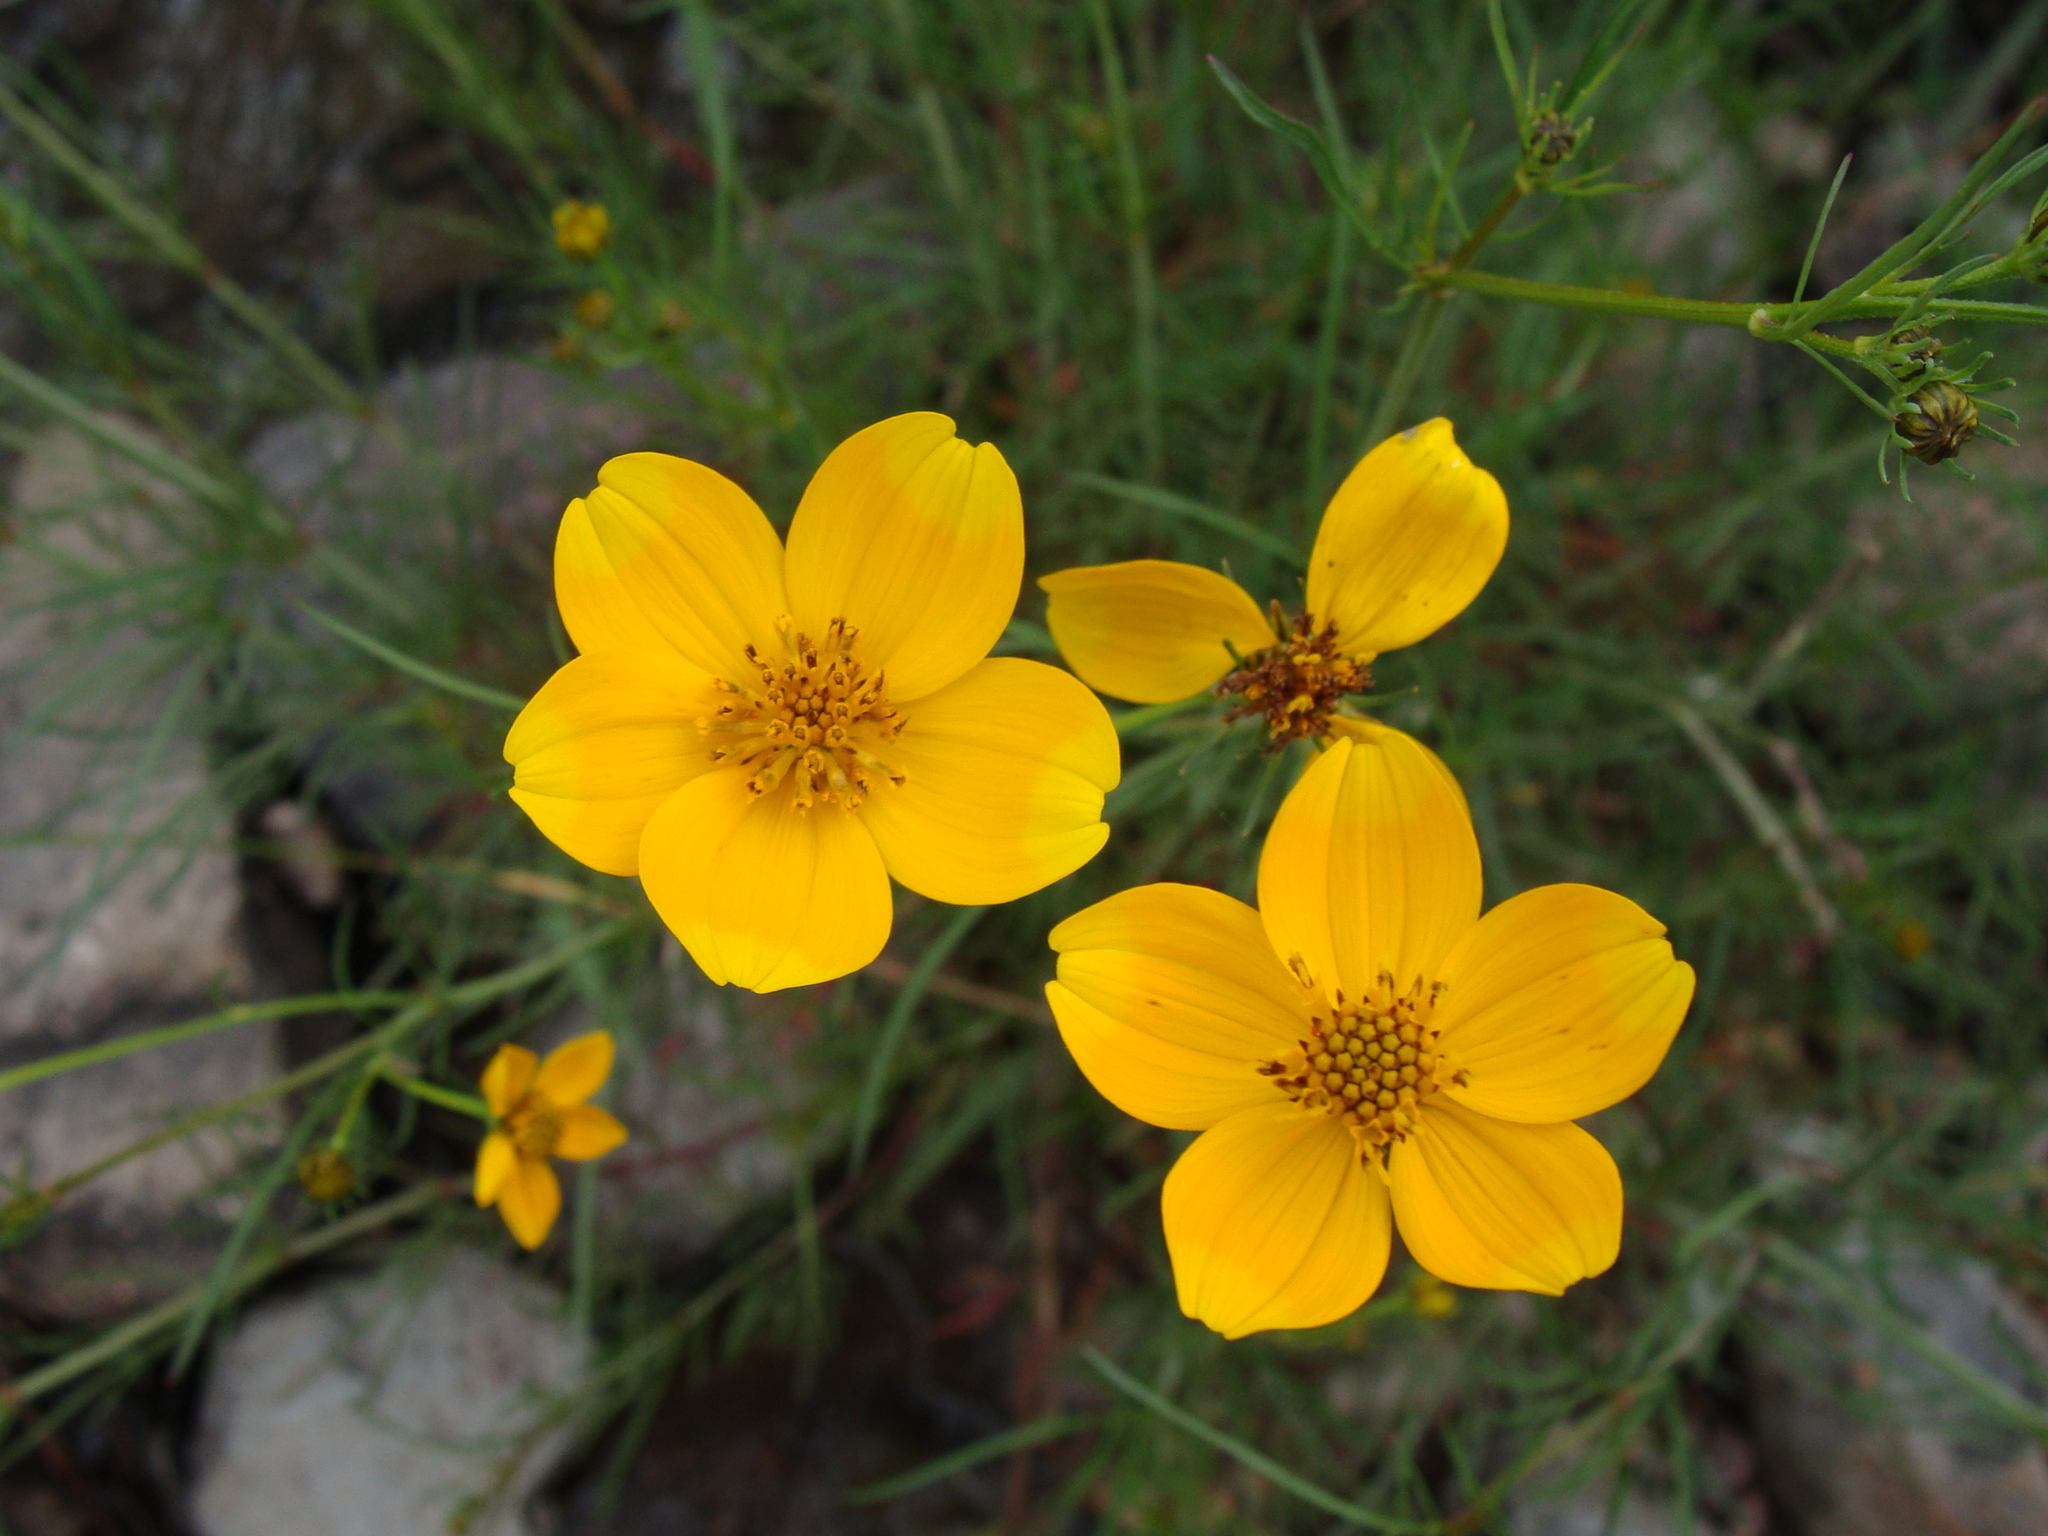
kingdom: Plantae
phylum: Tracheophyta
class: Magnoliopsida
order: Asterales
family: Asteraceae
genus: Bidens
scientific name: Bidens aurea
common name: Arizona beggar-ticks
